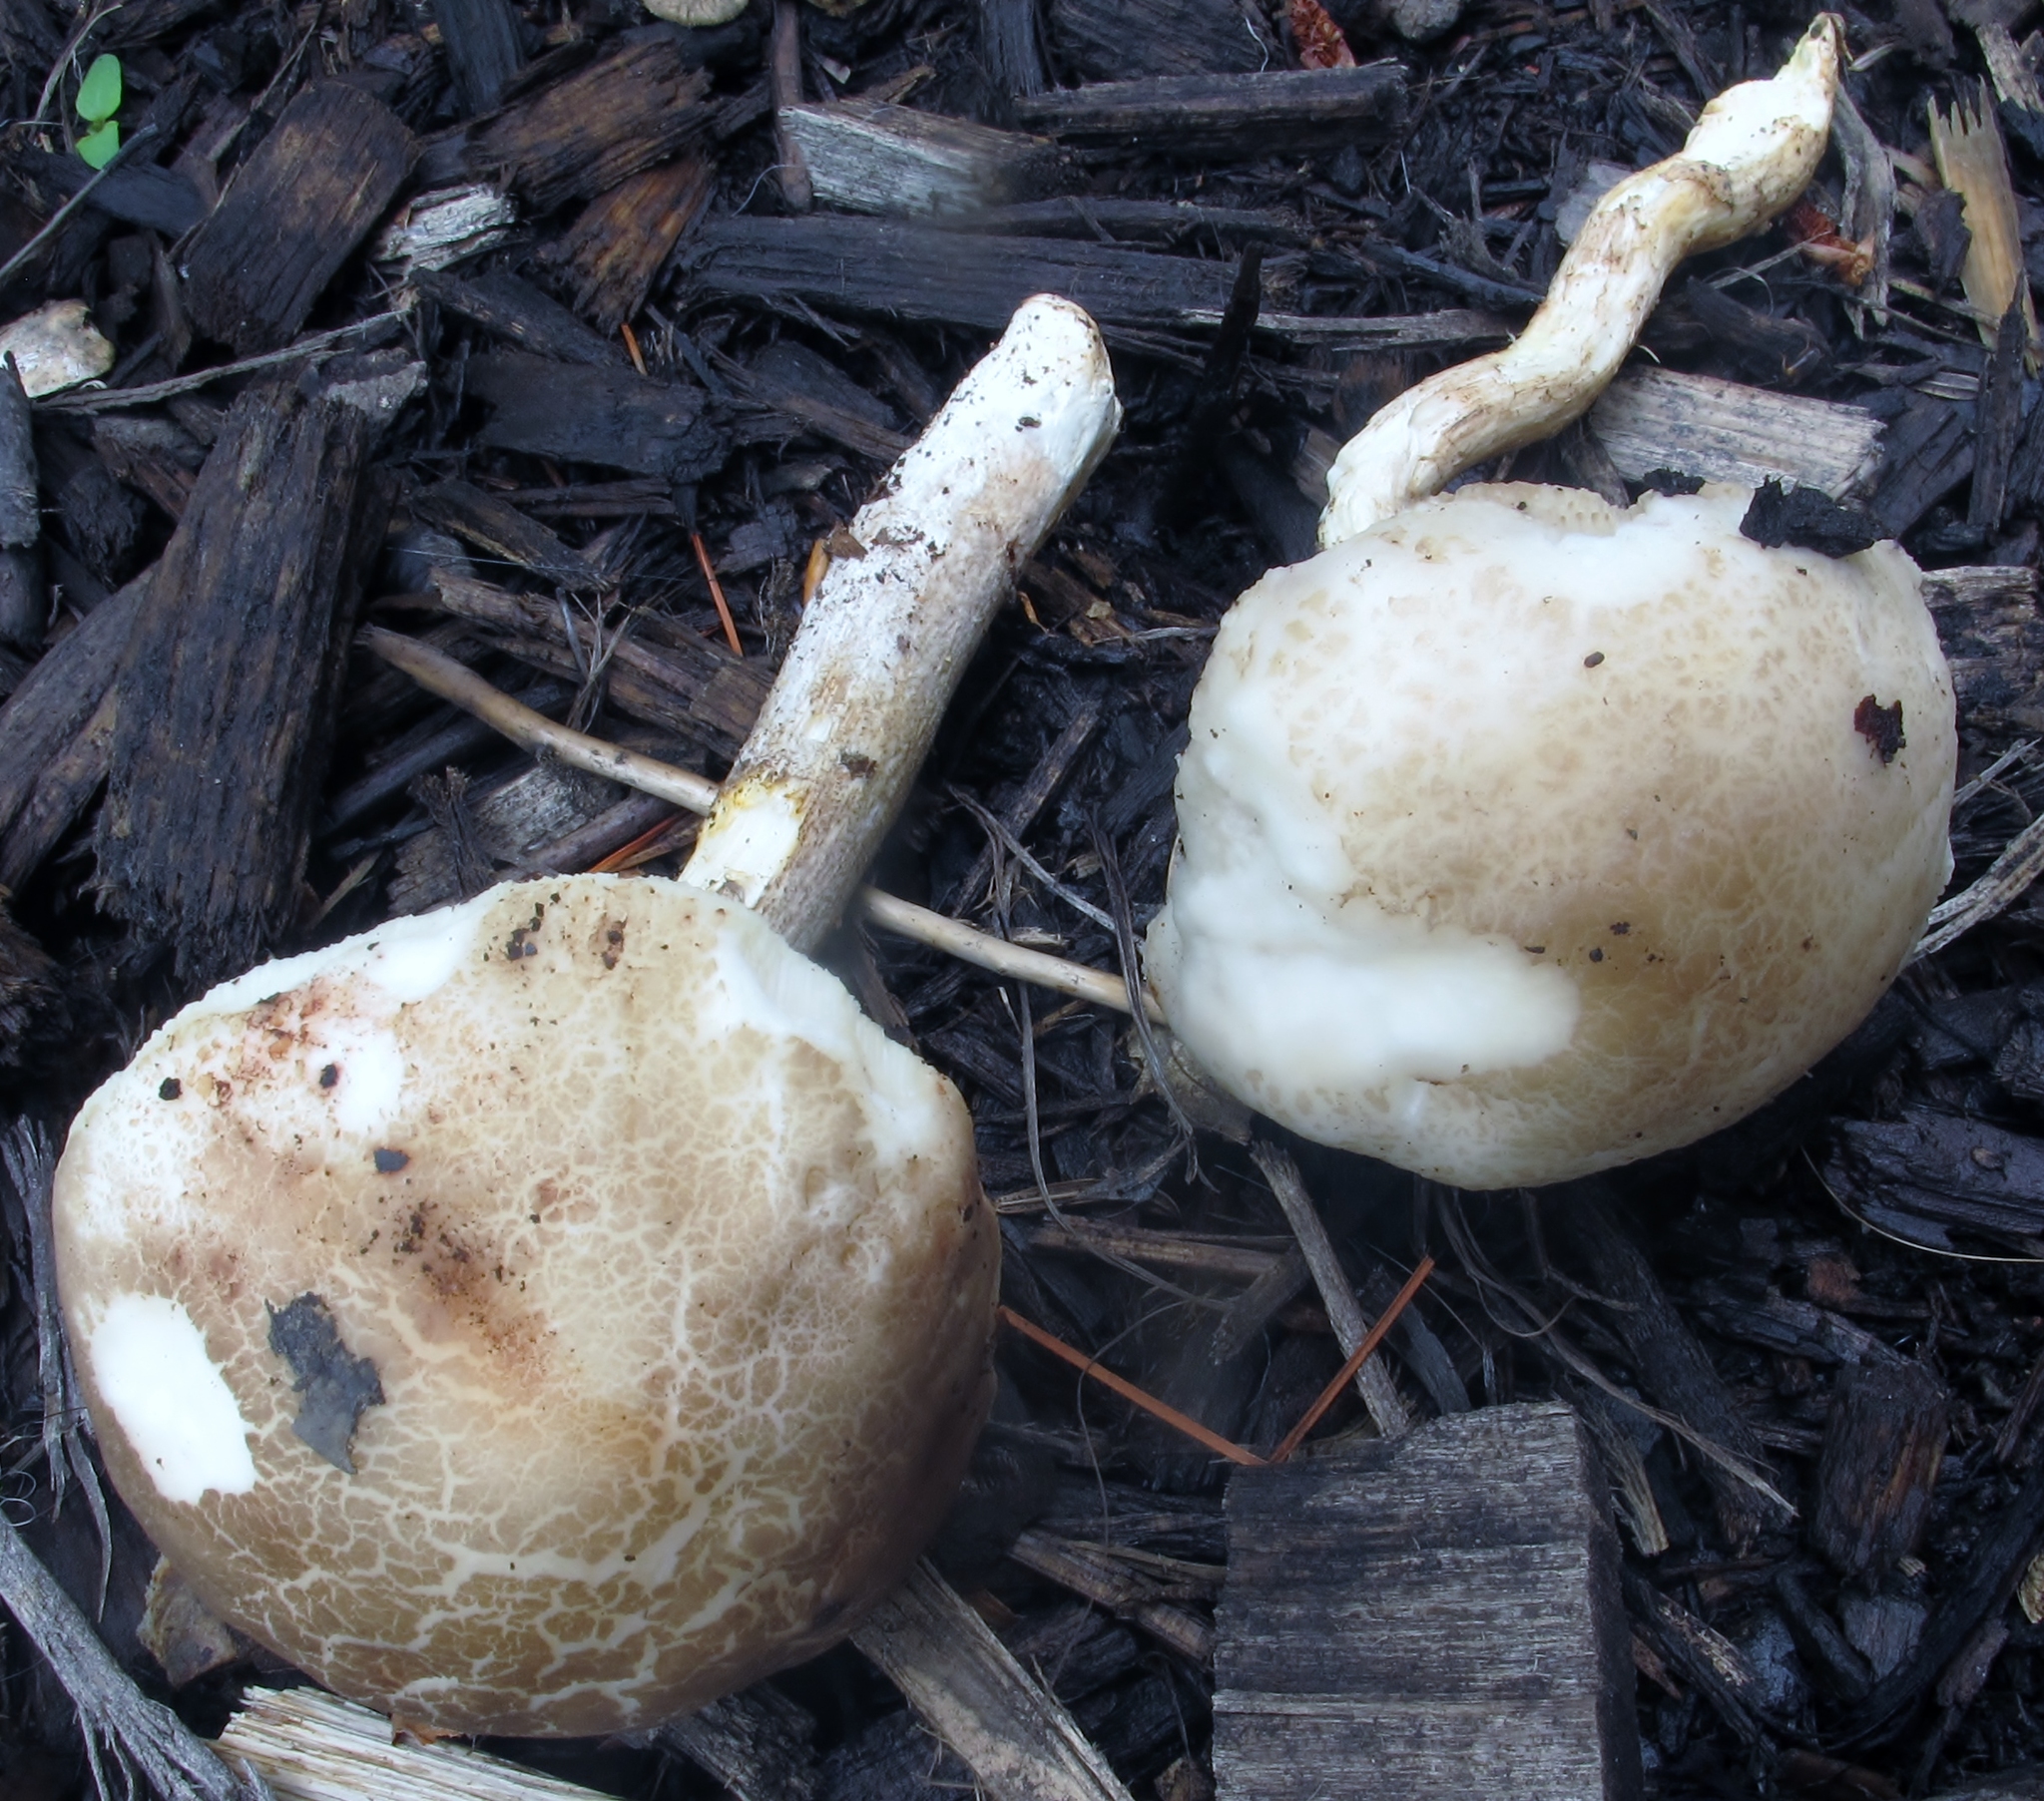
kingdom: Fungi
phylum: Basidiomycota
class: Agaricomycetes
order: Boletales
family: Boletaceae
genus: Leccinellum
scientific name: Leccinellum albellum
